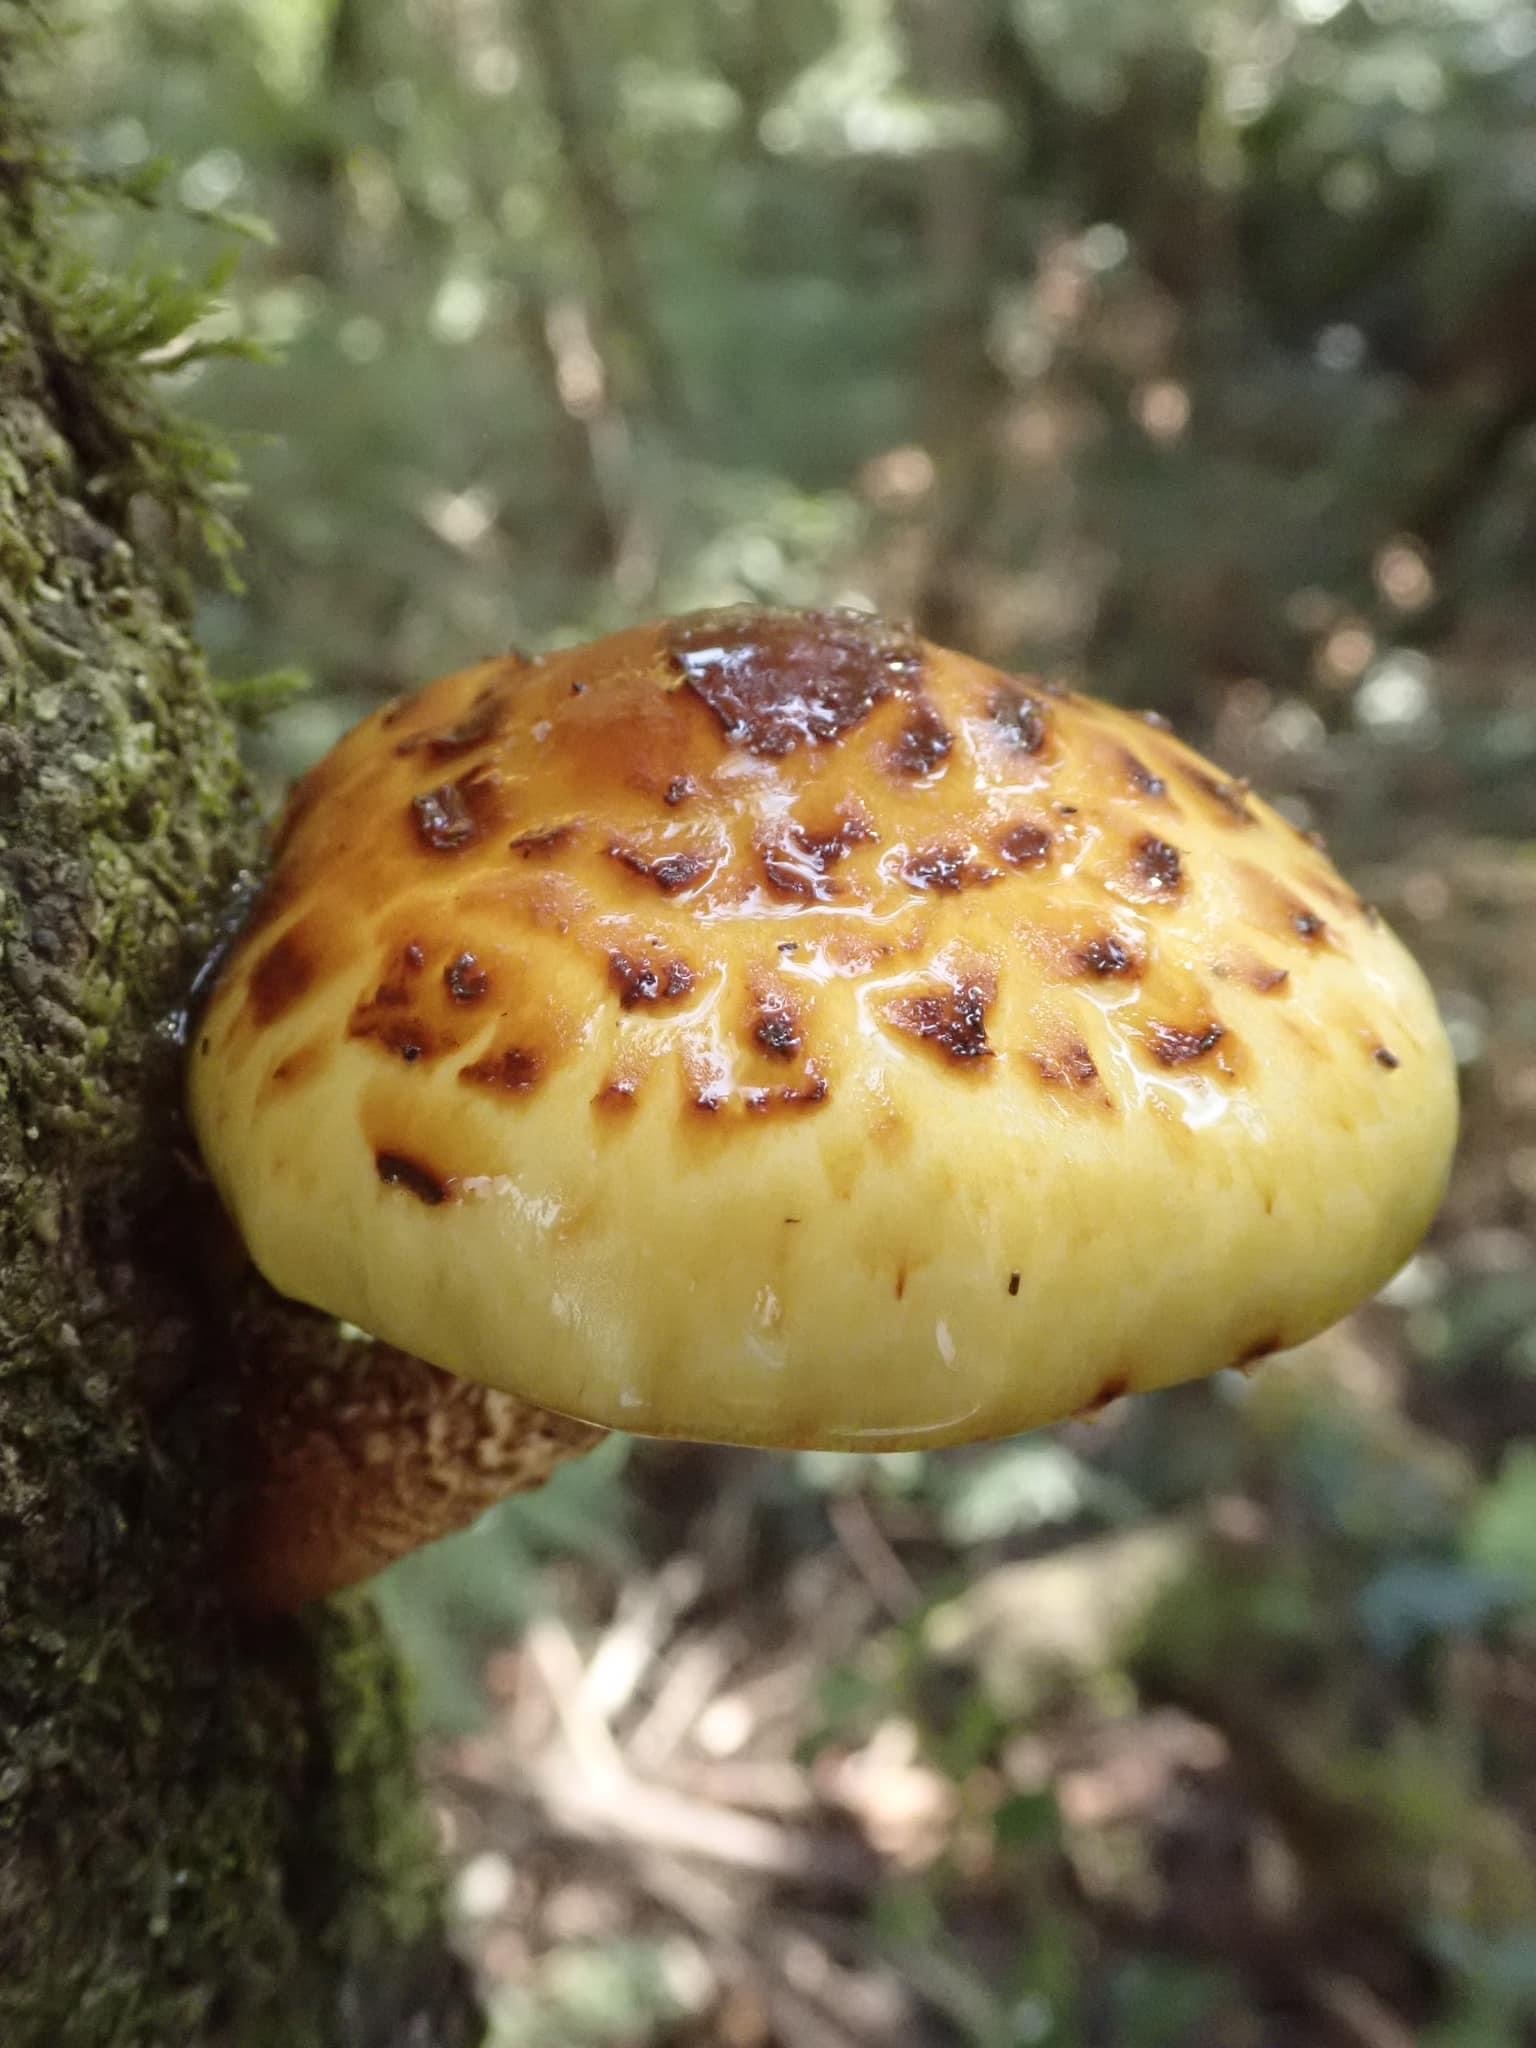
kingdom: Fungi
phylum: Basidiomycota
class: Agaricomycetes
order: Agaricales
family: Strophariaceae
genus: Pholiota
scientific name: Pholiota aurivella
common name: Golden scalycap
